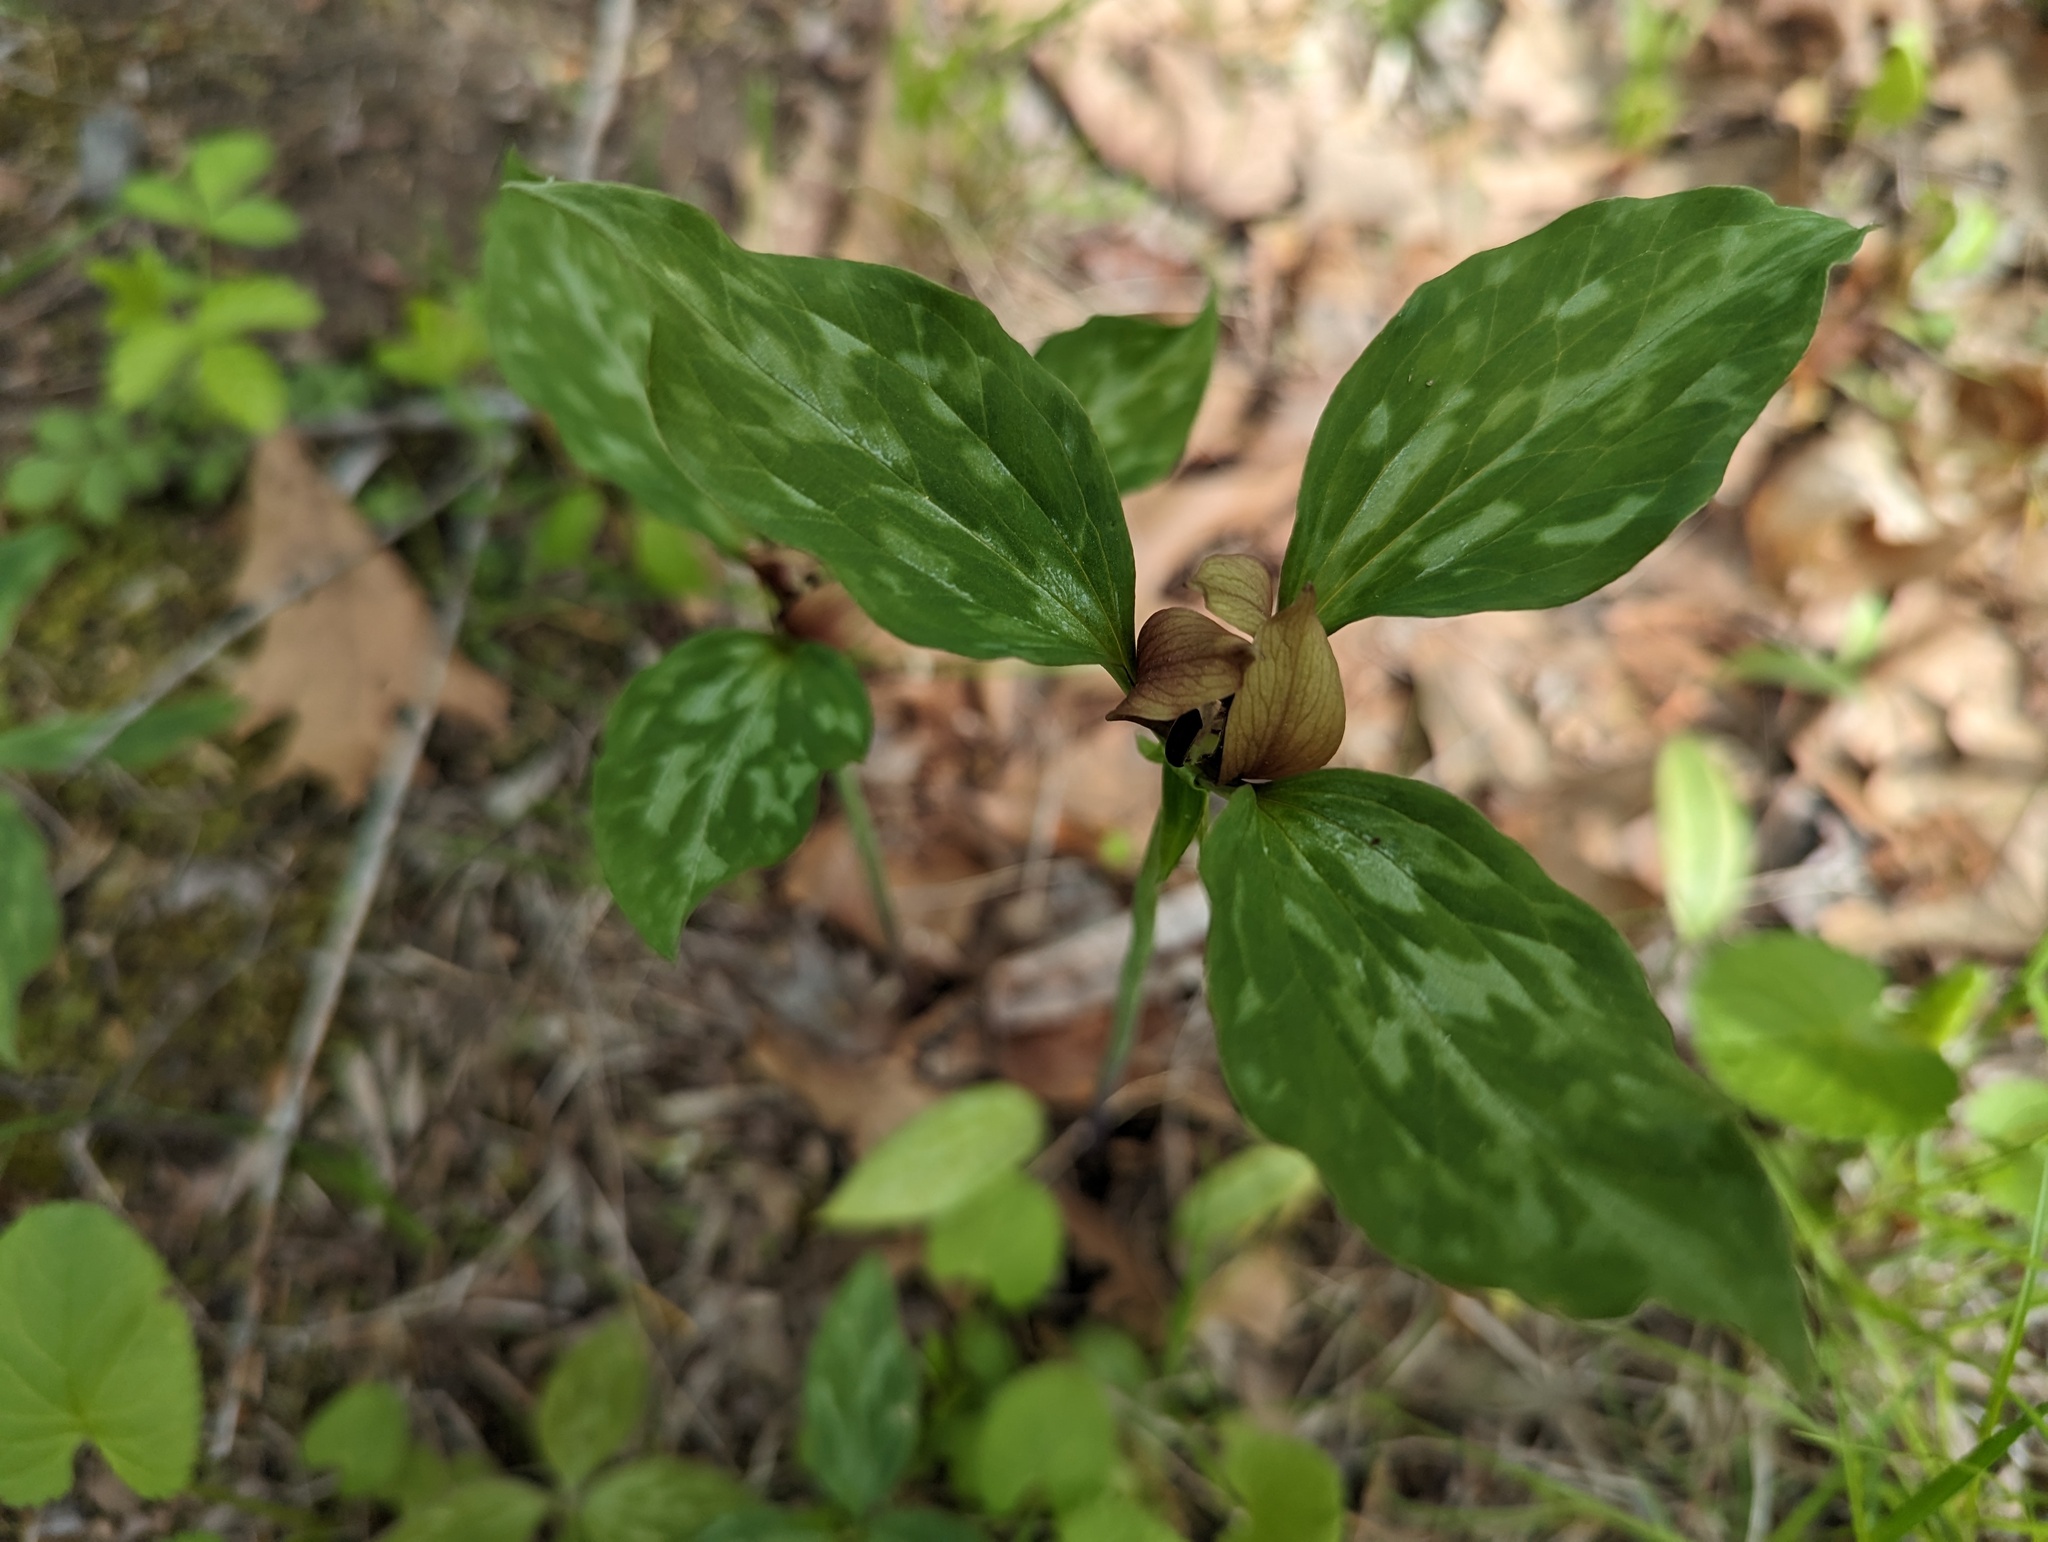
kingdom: Plantae
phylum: Tracheophyta
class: Liliopsida
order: Liliales
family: Melanthiaceae
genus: Trillium
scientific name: Trillium recurvatum
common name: Bloody butcher
